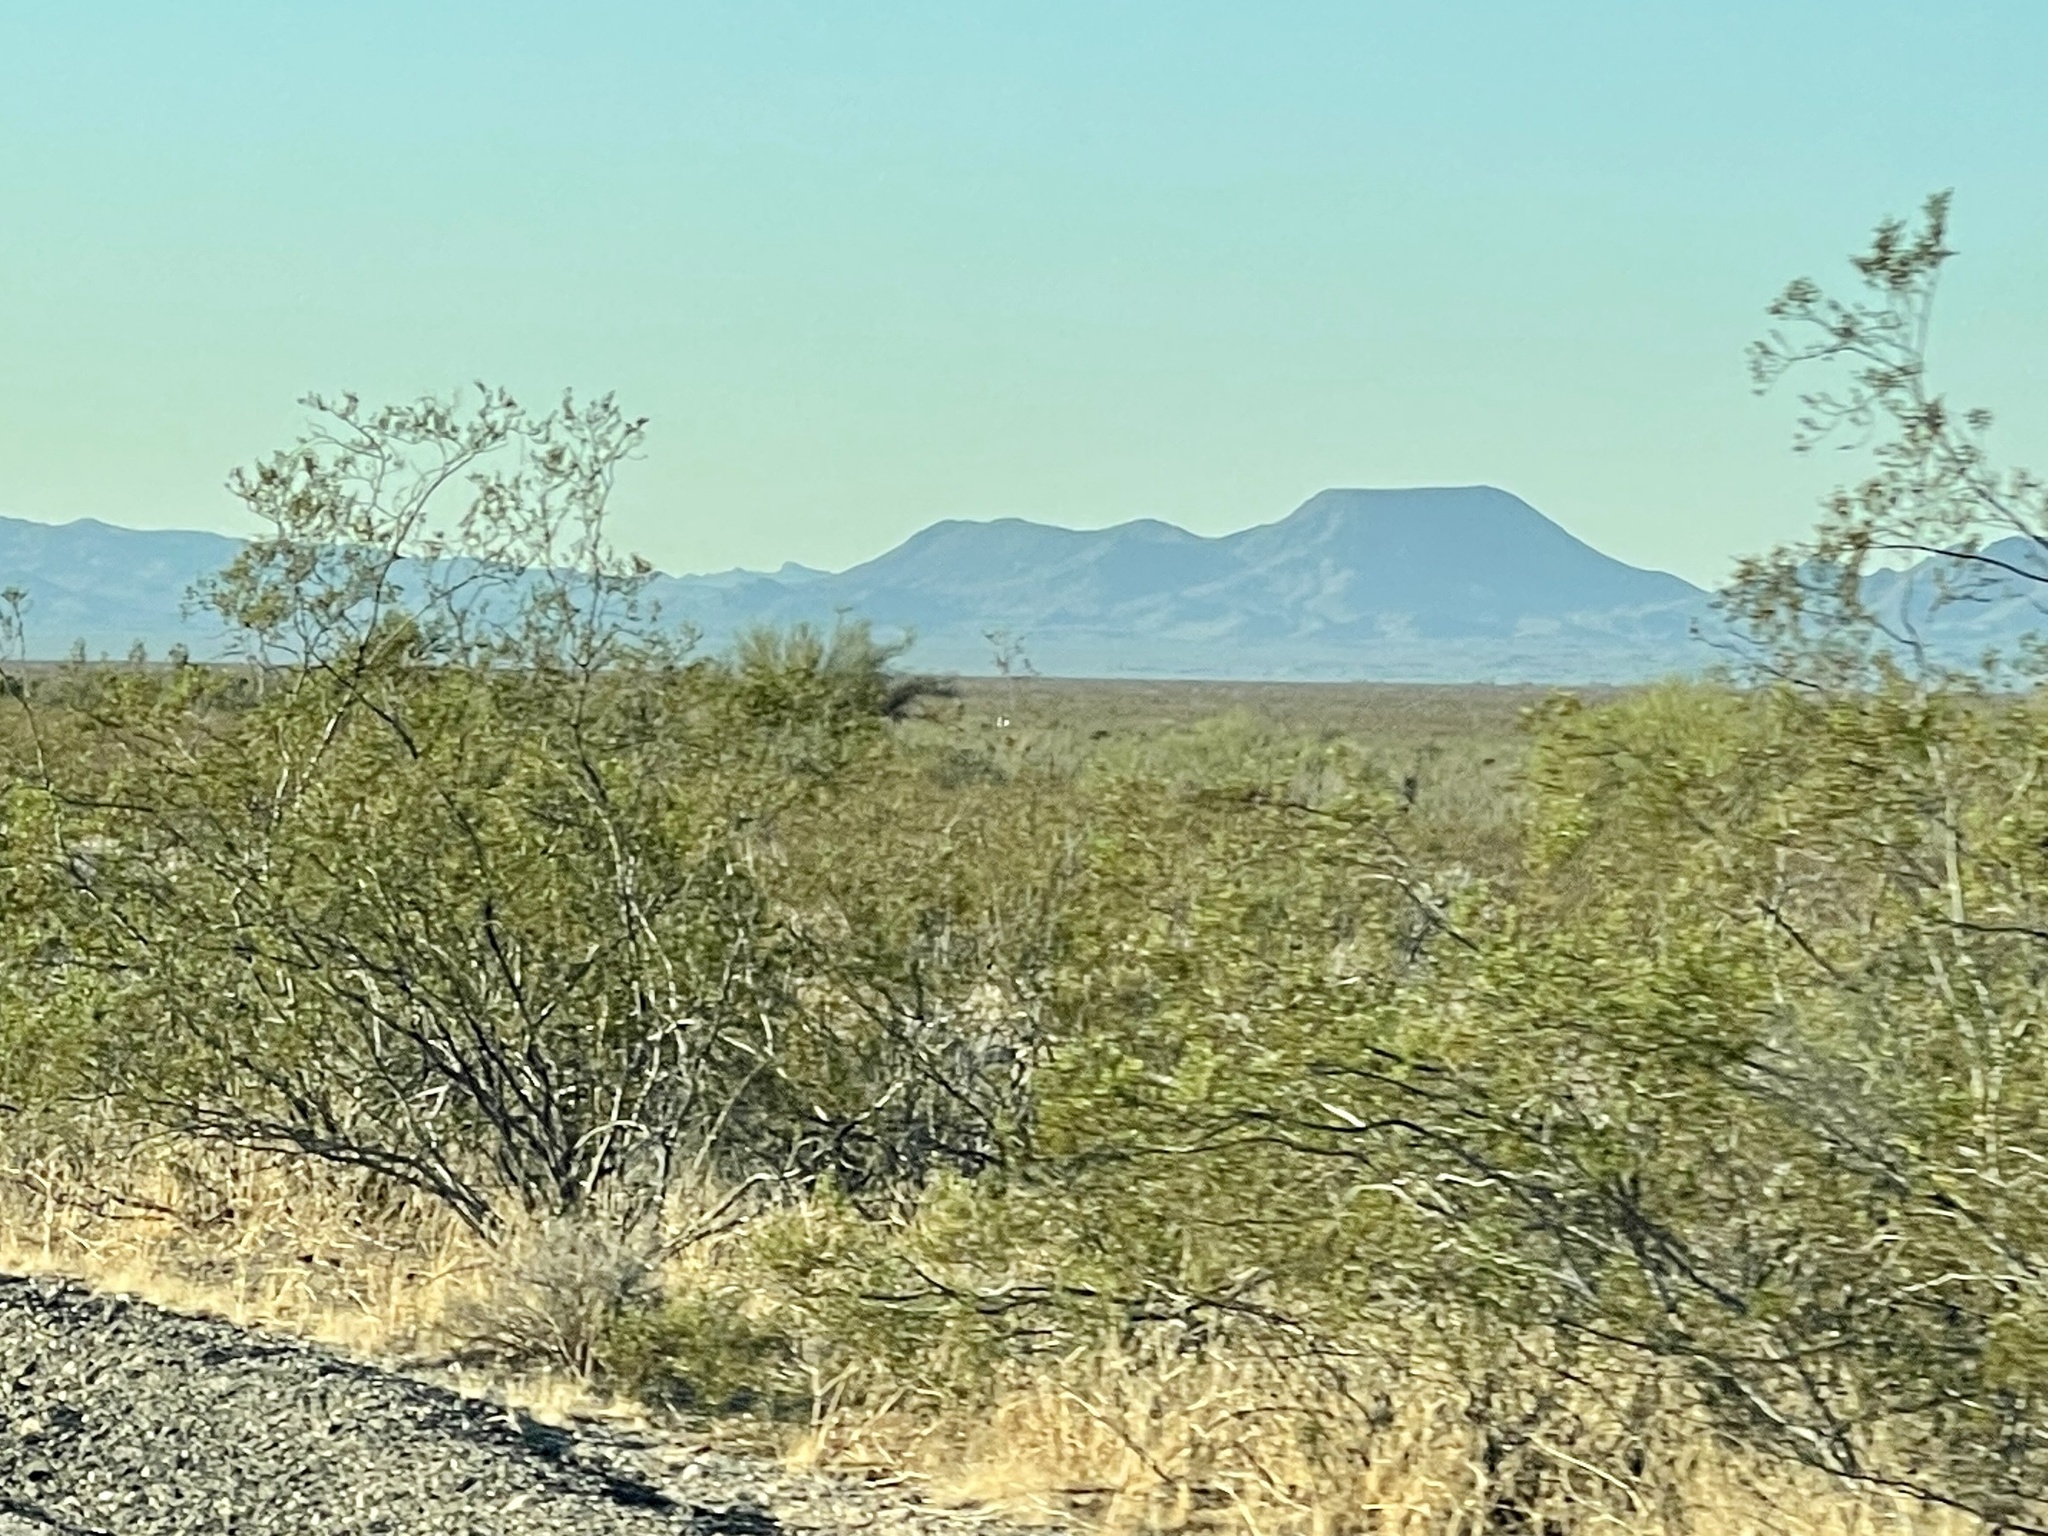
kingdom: Plantae
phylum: Tracheophyta
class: Magnoliopsida
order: Zygophyllales
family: Zygophyllaceae
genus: Larrea
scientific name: Larrea tridentata
